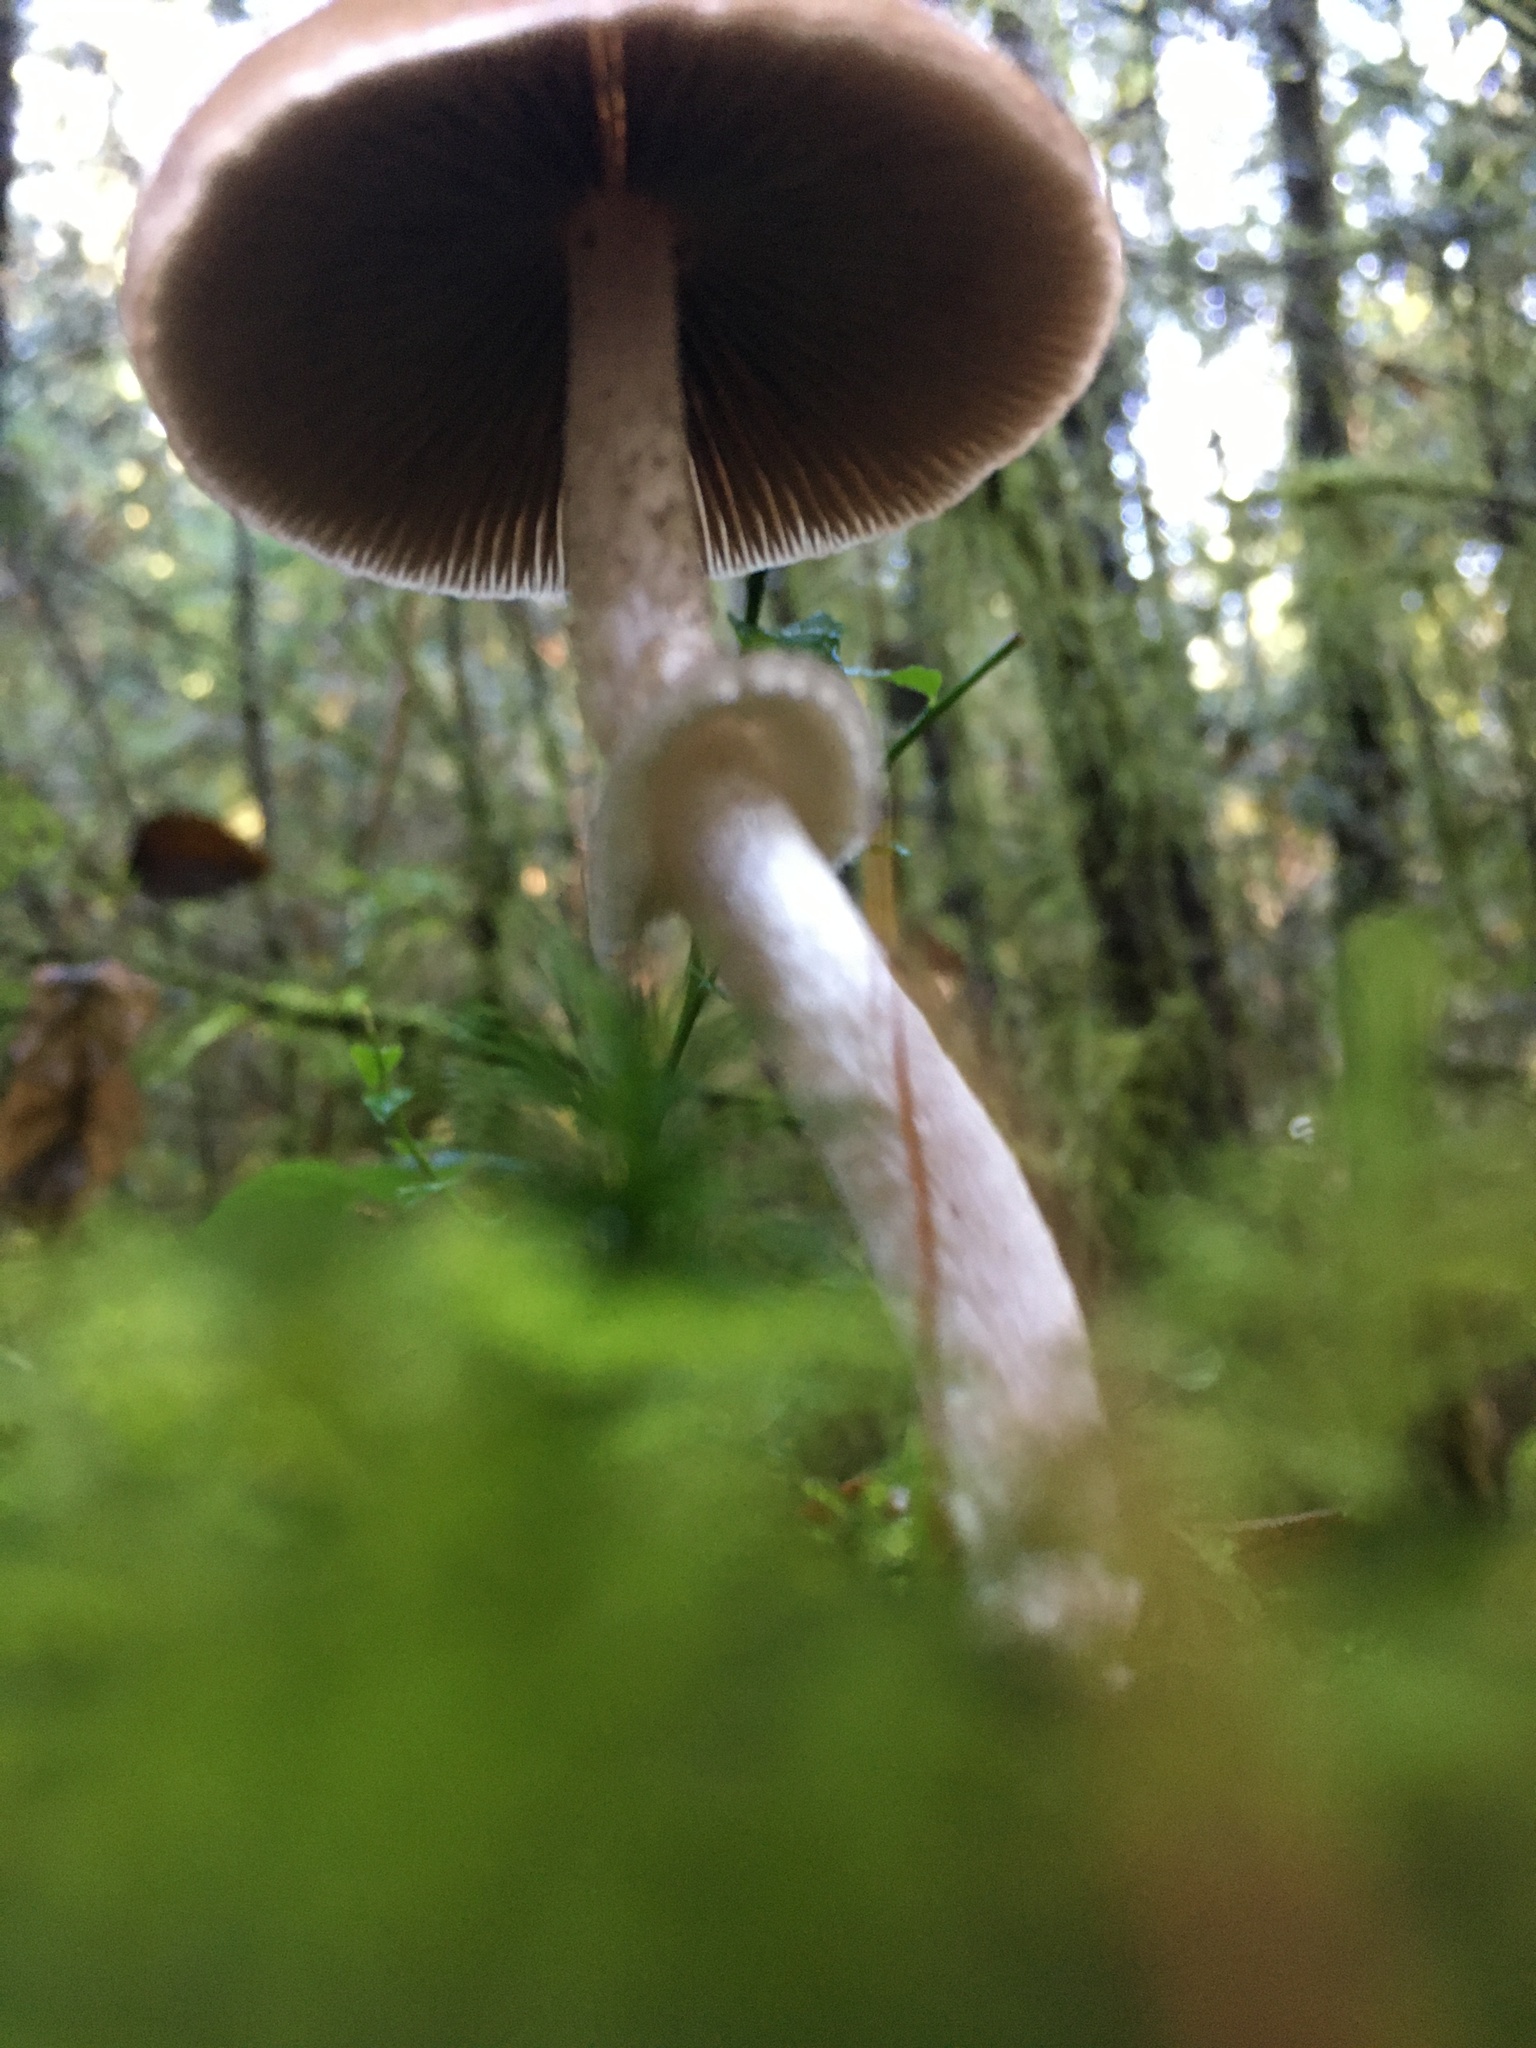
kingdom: Fungi
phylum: Basidiomycota
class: Agaricomycetes
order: Agaricales
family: Psathyrellaceae
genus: Psathyrella
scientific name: Psathyrella longistriata
